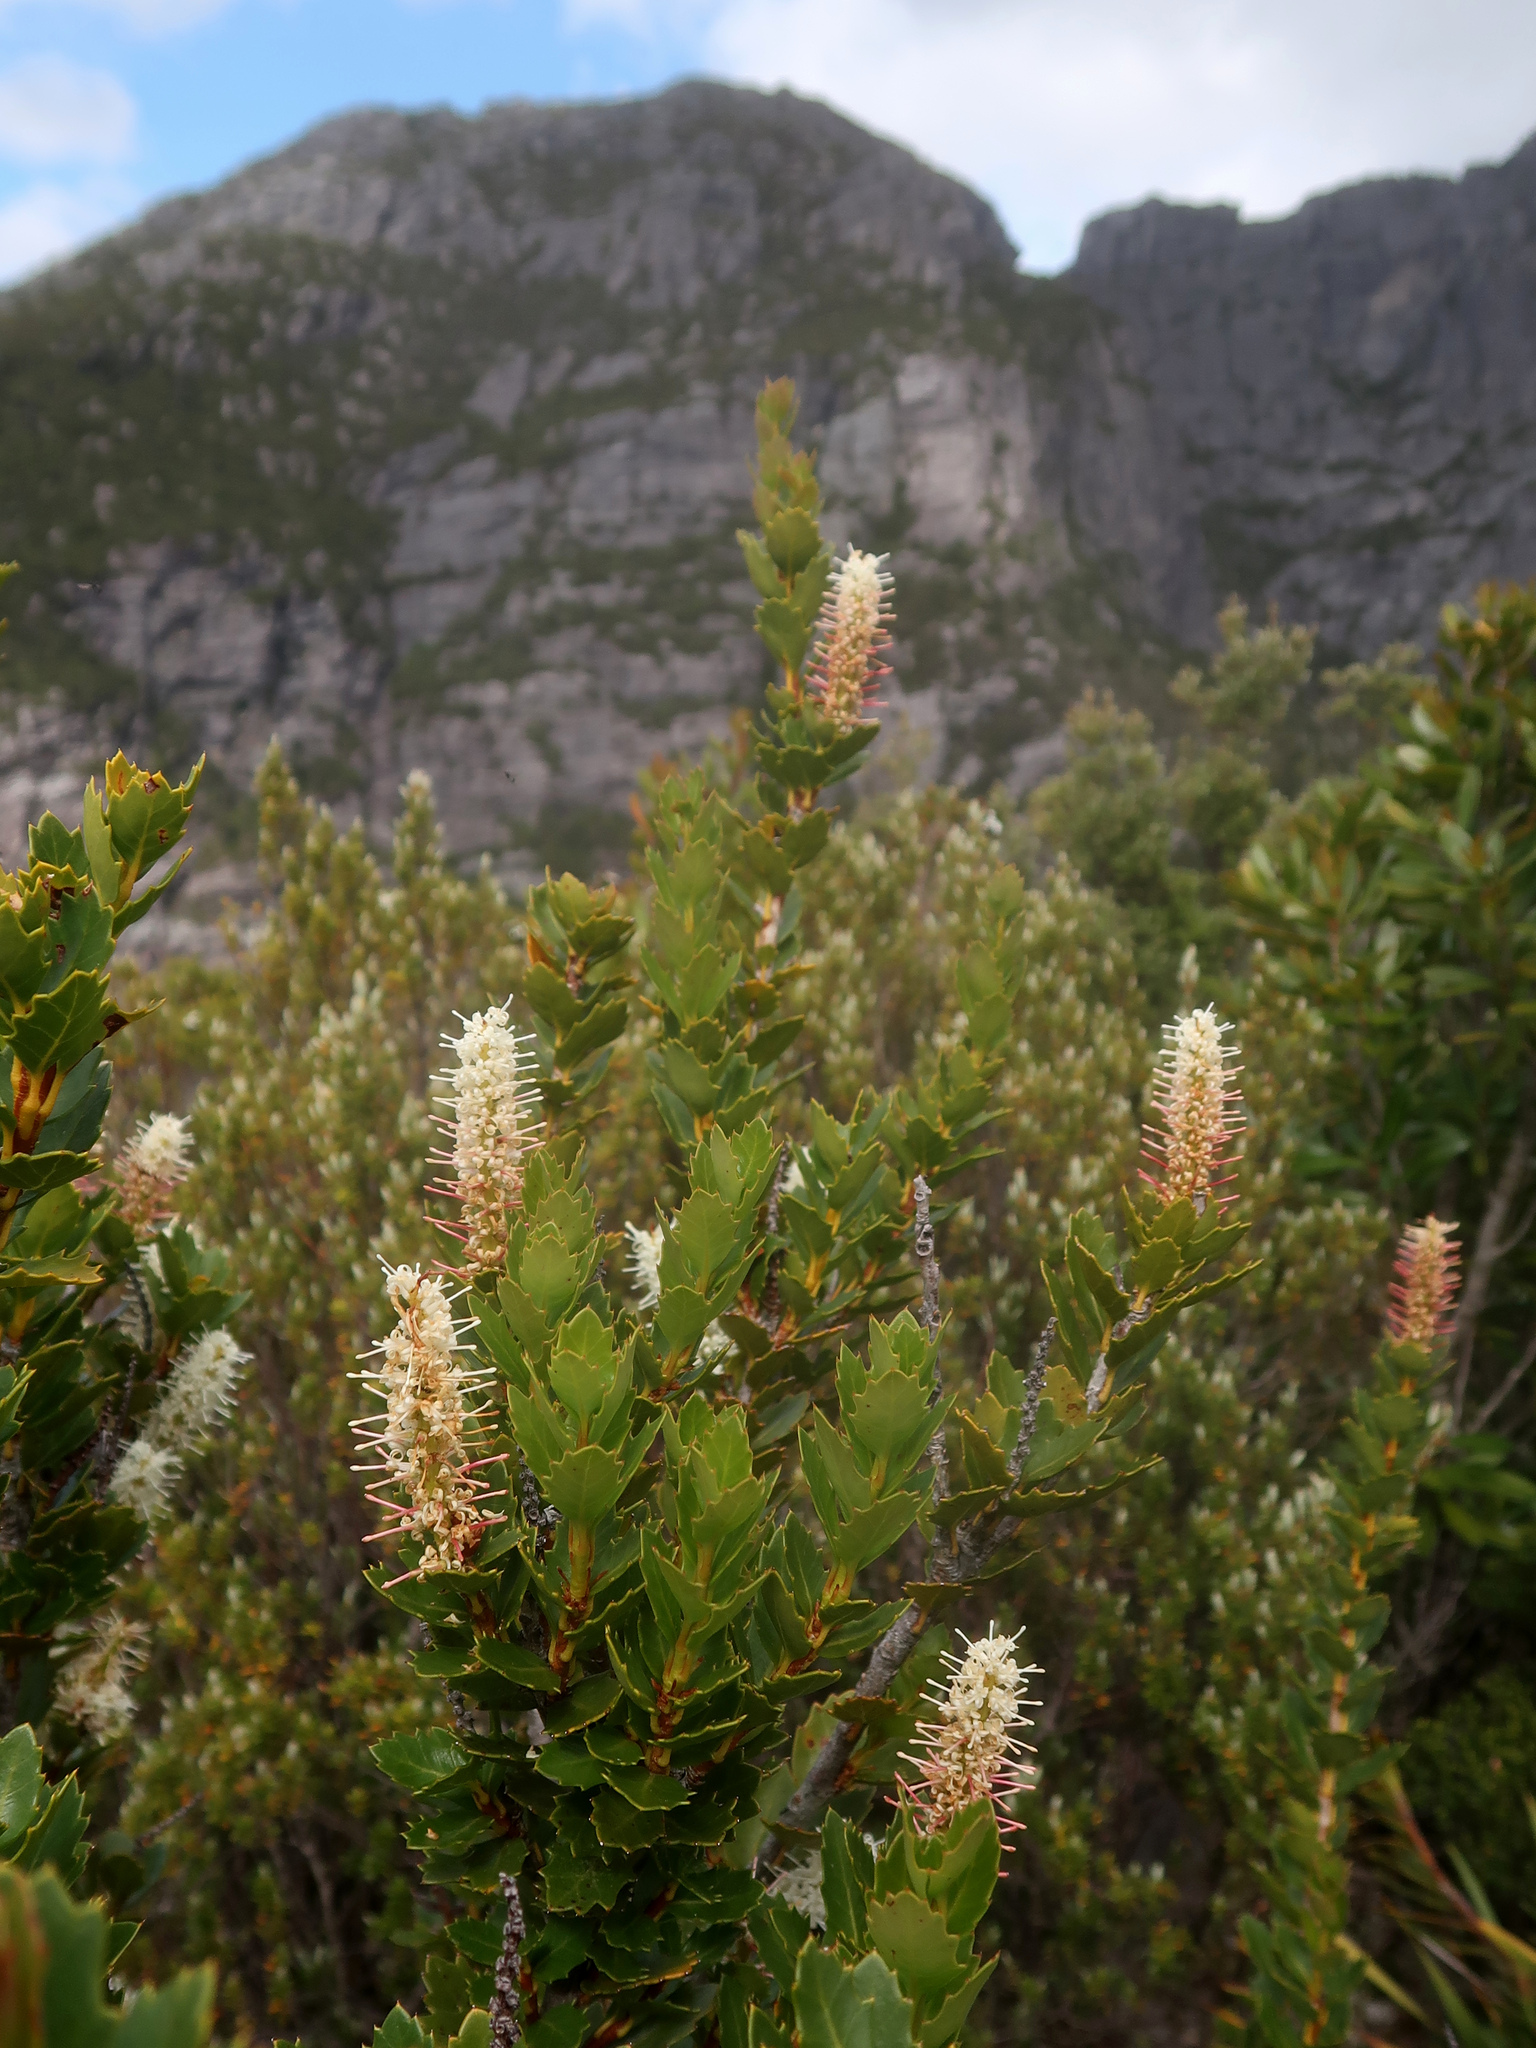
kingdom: Plantae
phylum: Tracheophyta
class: Magnoliopsida
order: Proteales
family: Proteaceae
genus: Orites
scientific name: Orites milliganii
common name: Toothed orites
